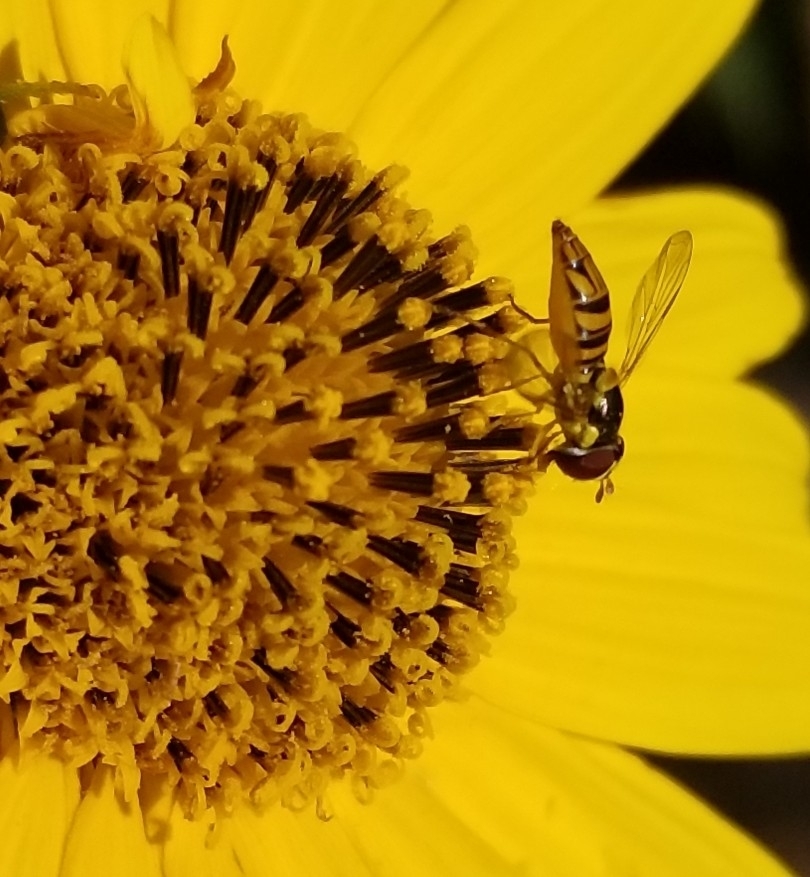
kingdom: Animalia
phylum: Arthropoda
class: Insecta
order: Diptera
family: Syrphidae
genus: Allograpta
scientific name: Allograpta obliqua
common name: Common oblique syrphid
